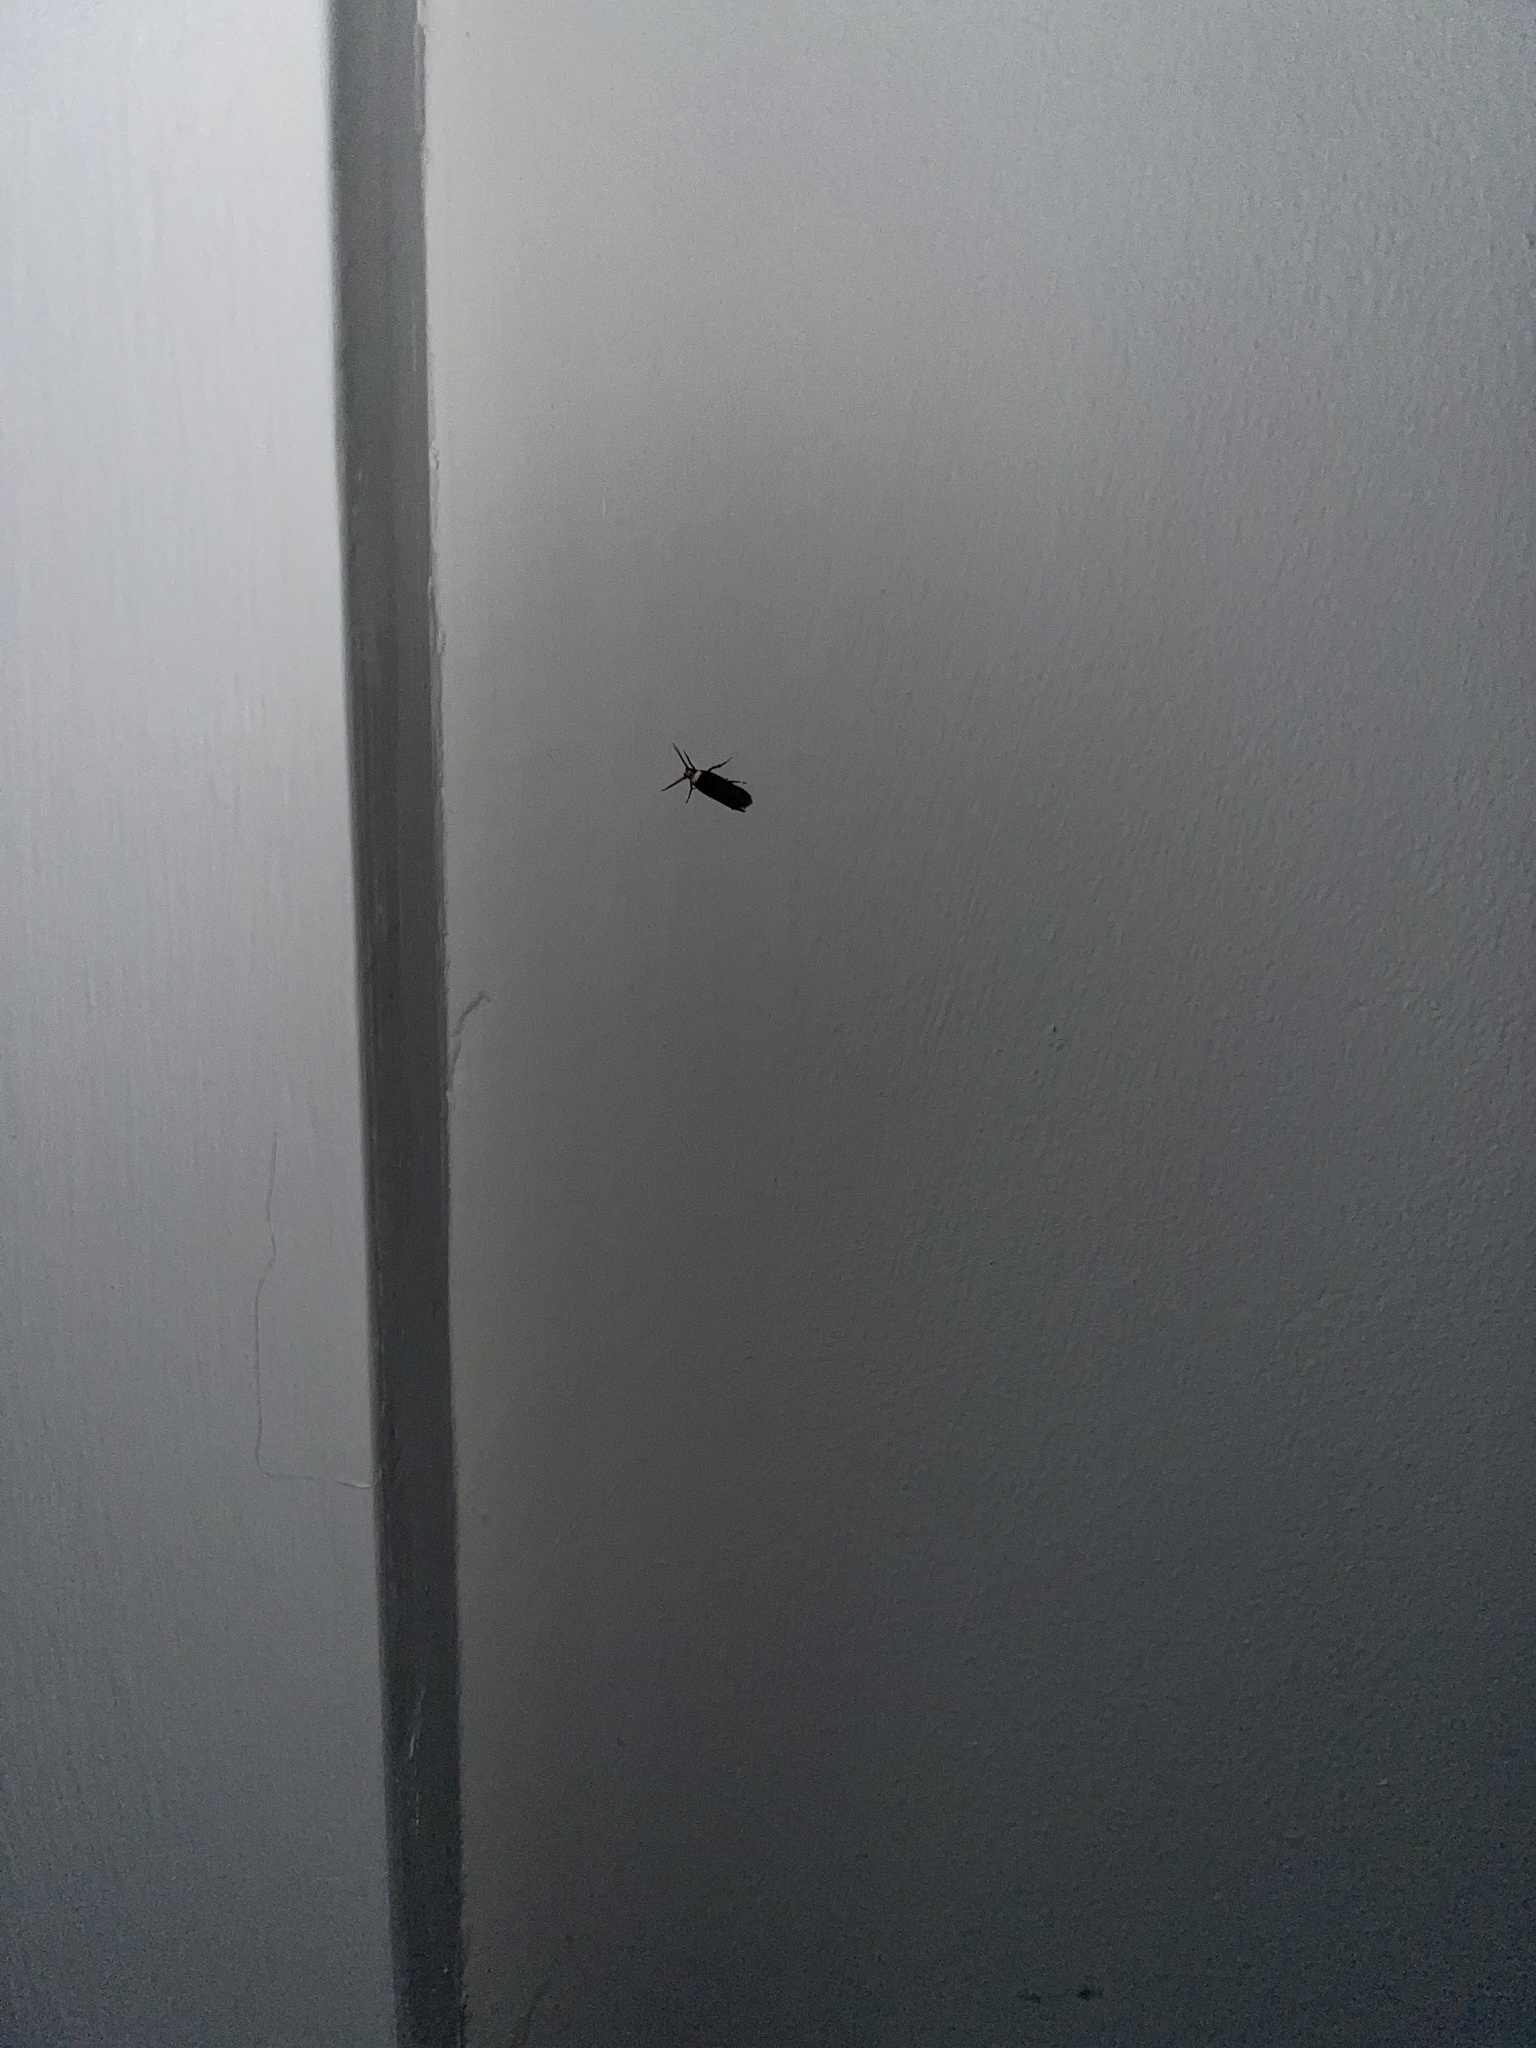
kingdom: Animalia
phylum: Arthropoda
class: Insecta
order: Lepidoptera
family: Oecophoridae
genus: Endrosis
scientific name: Endrosis sarcitrella
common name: White-shouldered house moth
